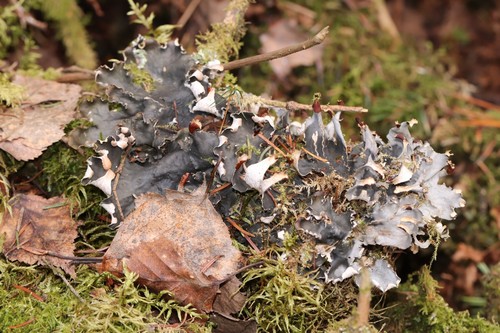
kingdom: Fungi
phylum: Ascomycota
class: Lecanoromycetes
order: Peltigerales
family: Peltigeraceae
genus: Peltigera
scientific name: Peltigera polydactylon
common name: Many-fruited pelt lichen
